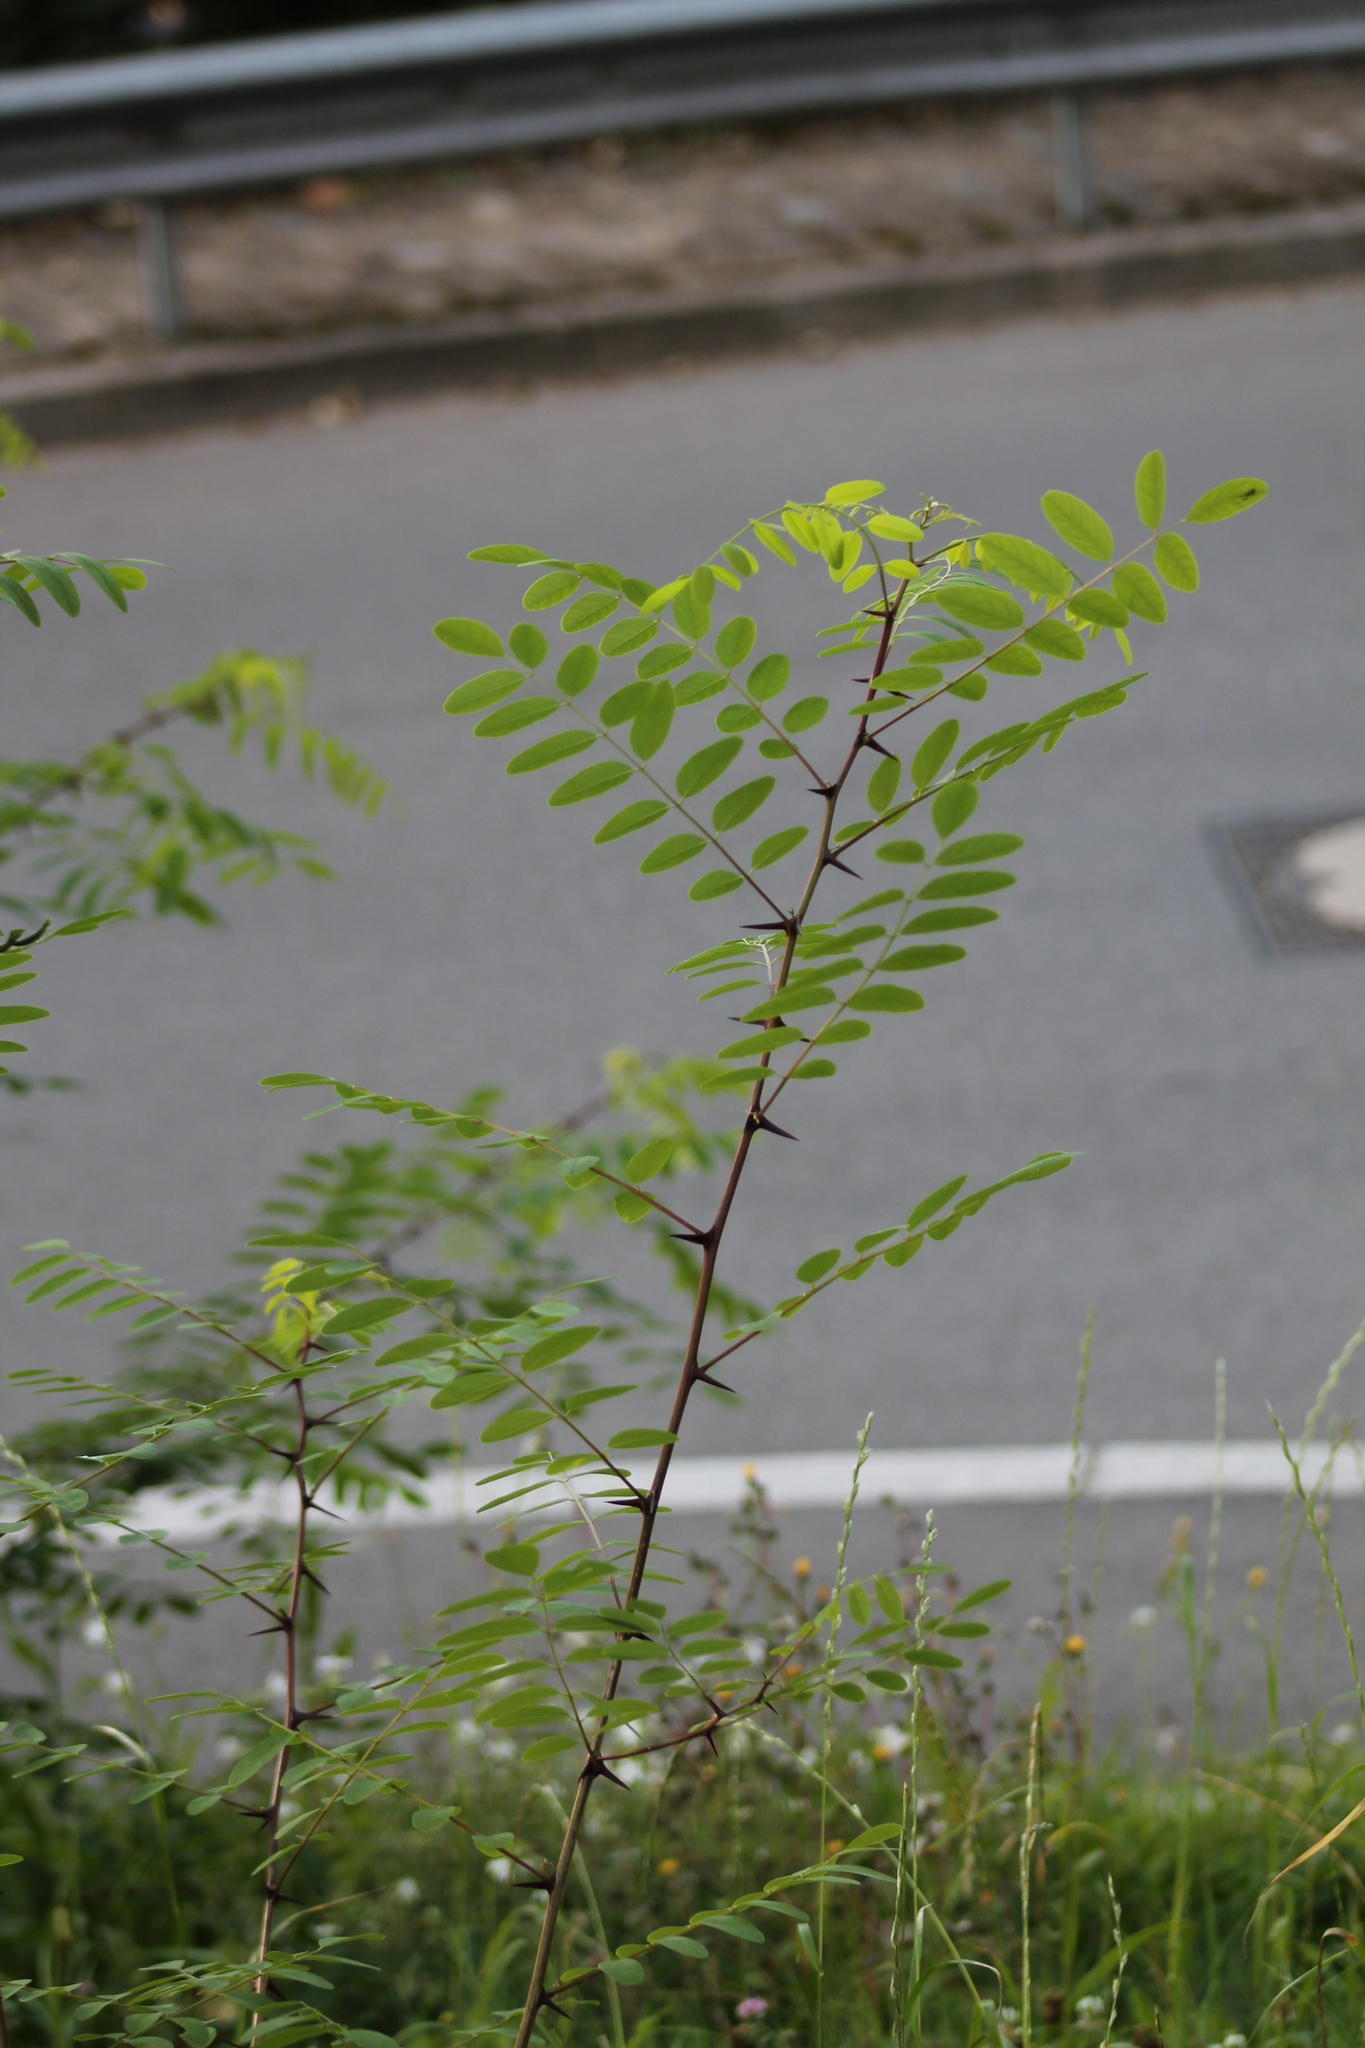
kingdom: Plantae
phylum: Tracheophyta
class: Magnoliopsida
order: Fabales
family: Fabaceae
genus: Robinia
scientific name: Robinia pseudoacacia
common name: Black locust
